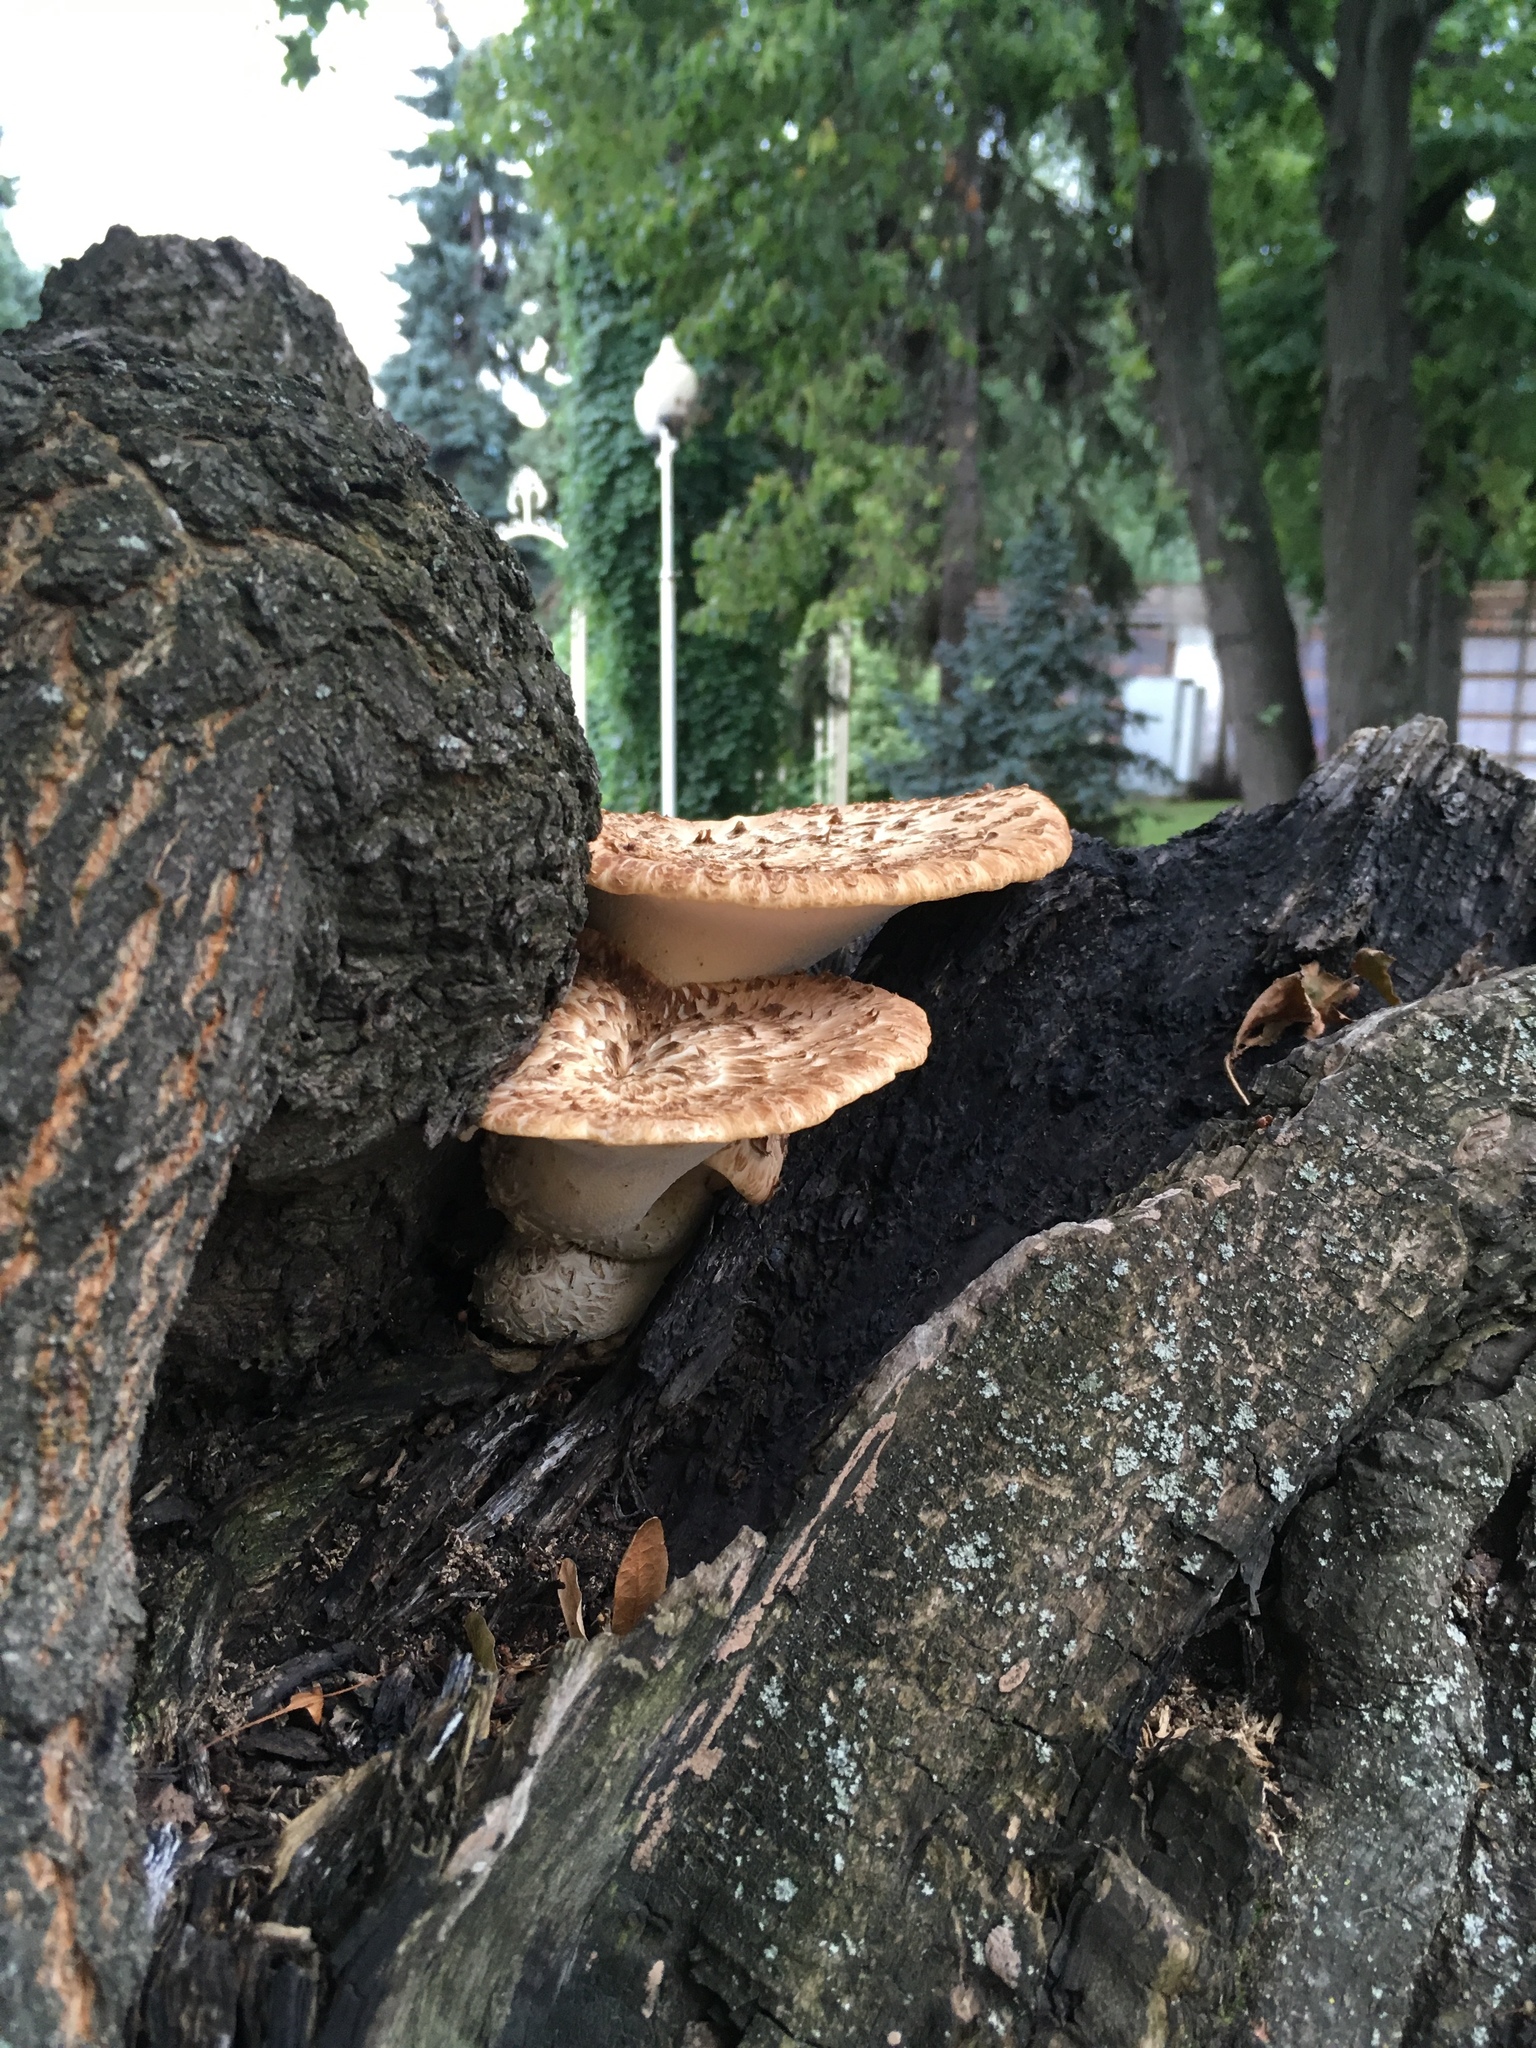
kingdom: Fungi
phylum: Basidiomycota
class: Agaricomycetes
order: Polyporales
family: Polyporaceae
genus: Cerioporus
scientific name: Cerioporus squamosus
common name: Dryad's saddle
